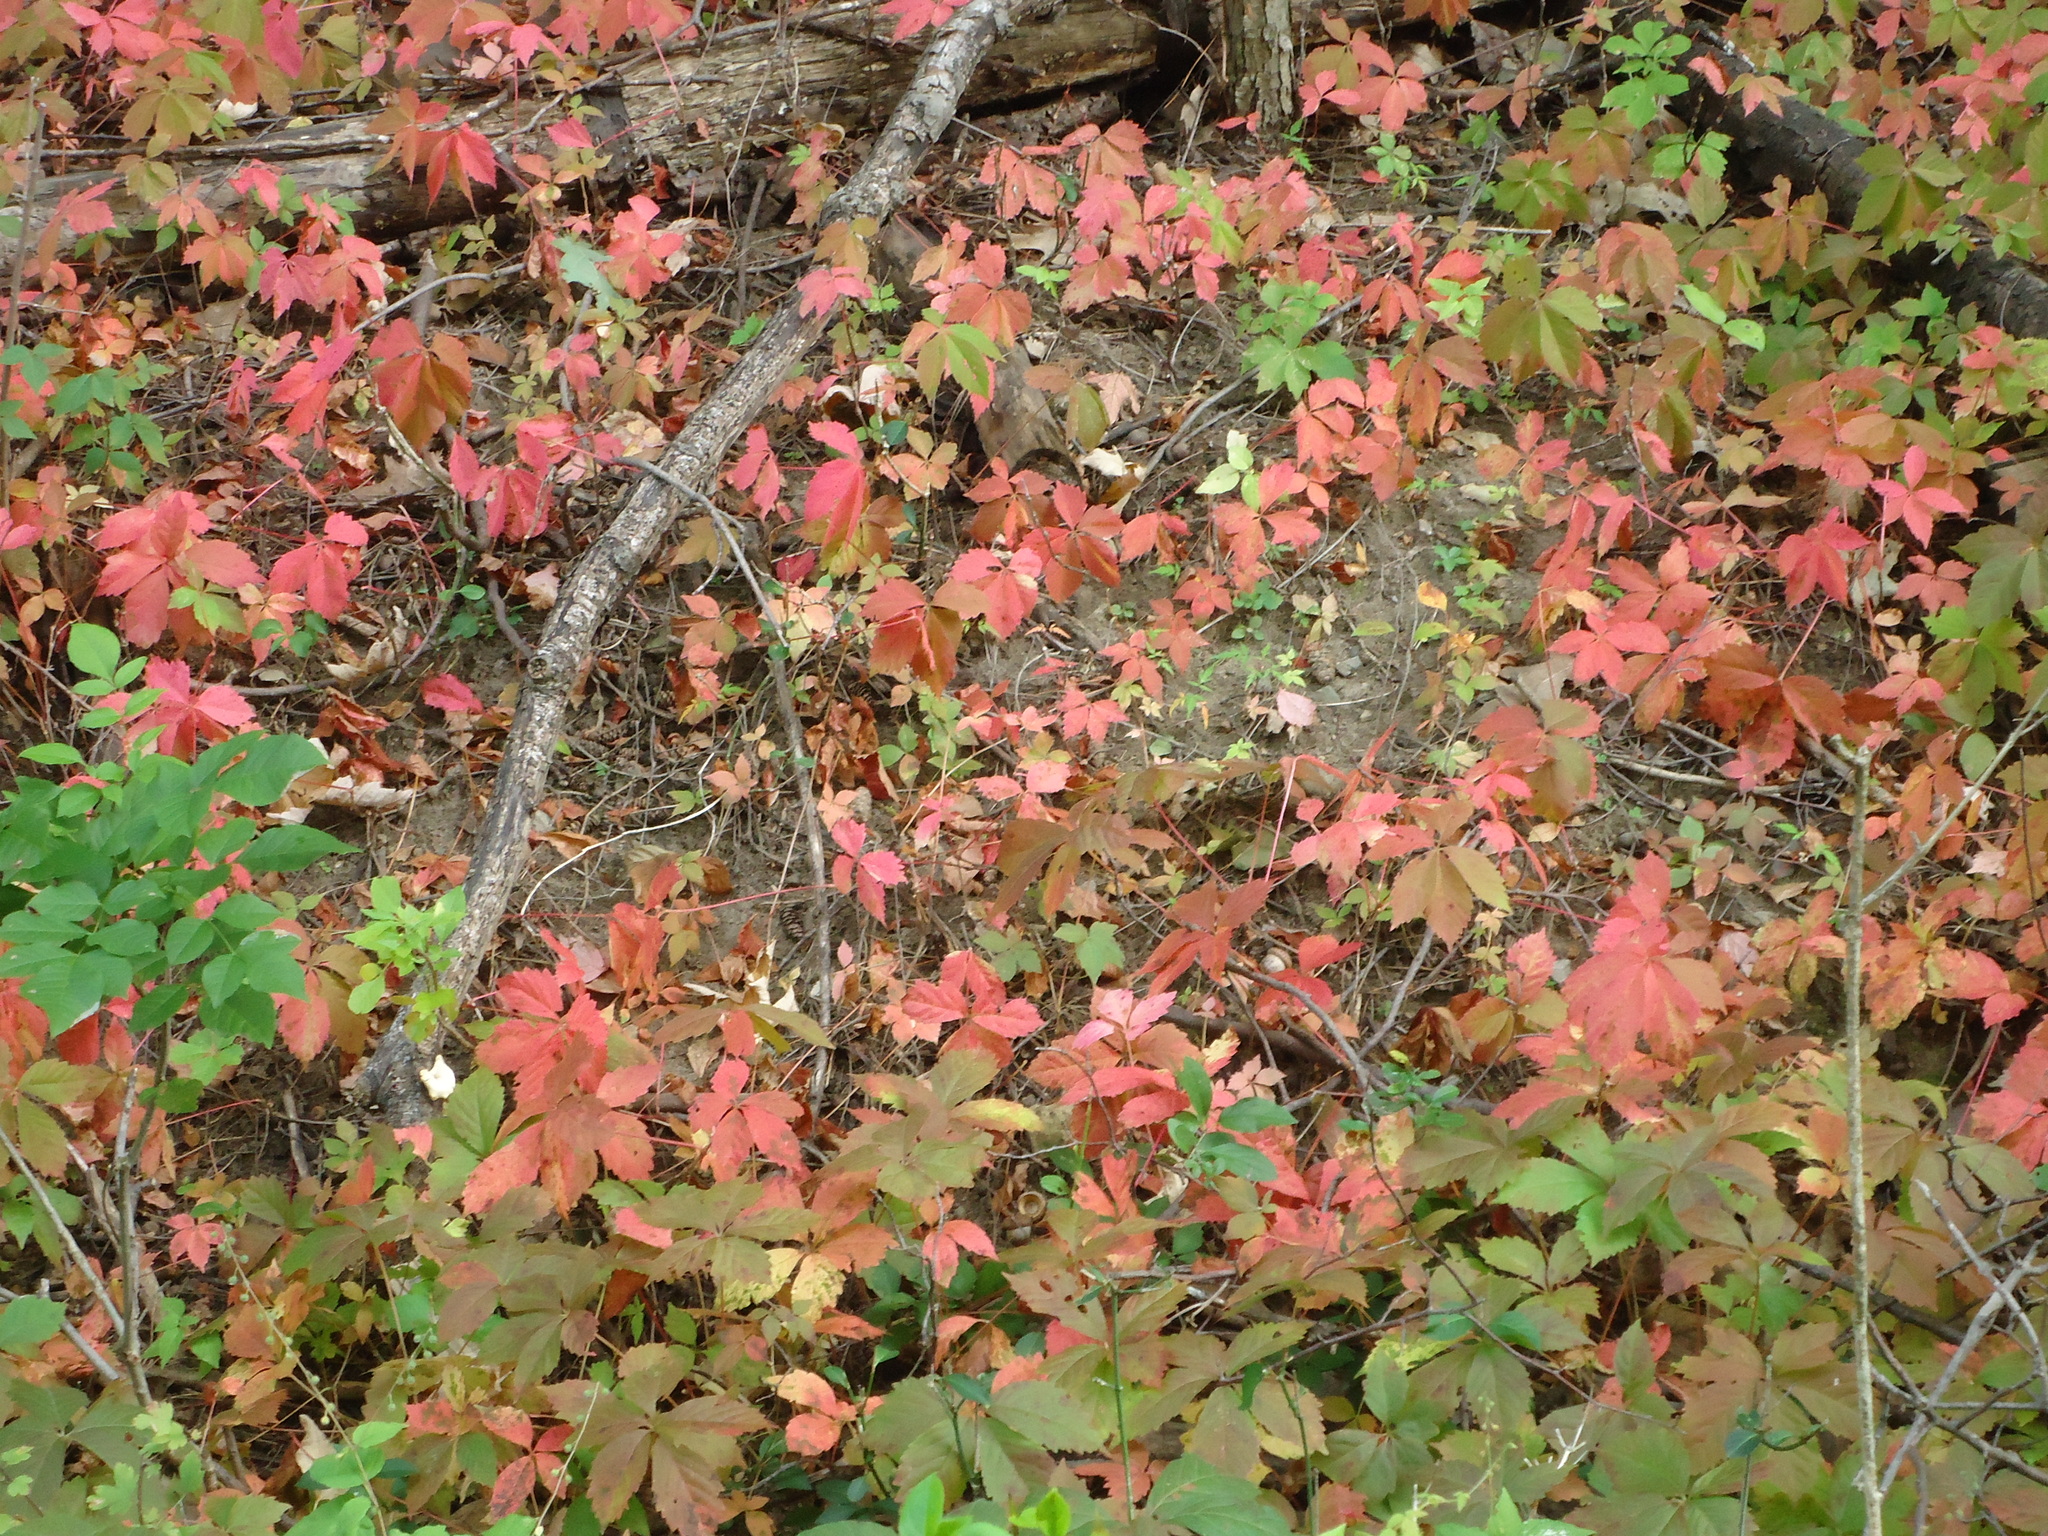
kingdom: Plantae
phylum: Tracheophyta
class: Magnoliopsida
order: Vitales
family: Vitaceae
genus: Parthenocissus
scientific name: Parthenocissus quinquefolia
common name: Virginia-creeper
